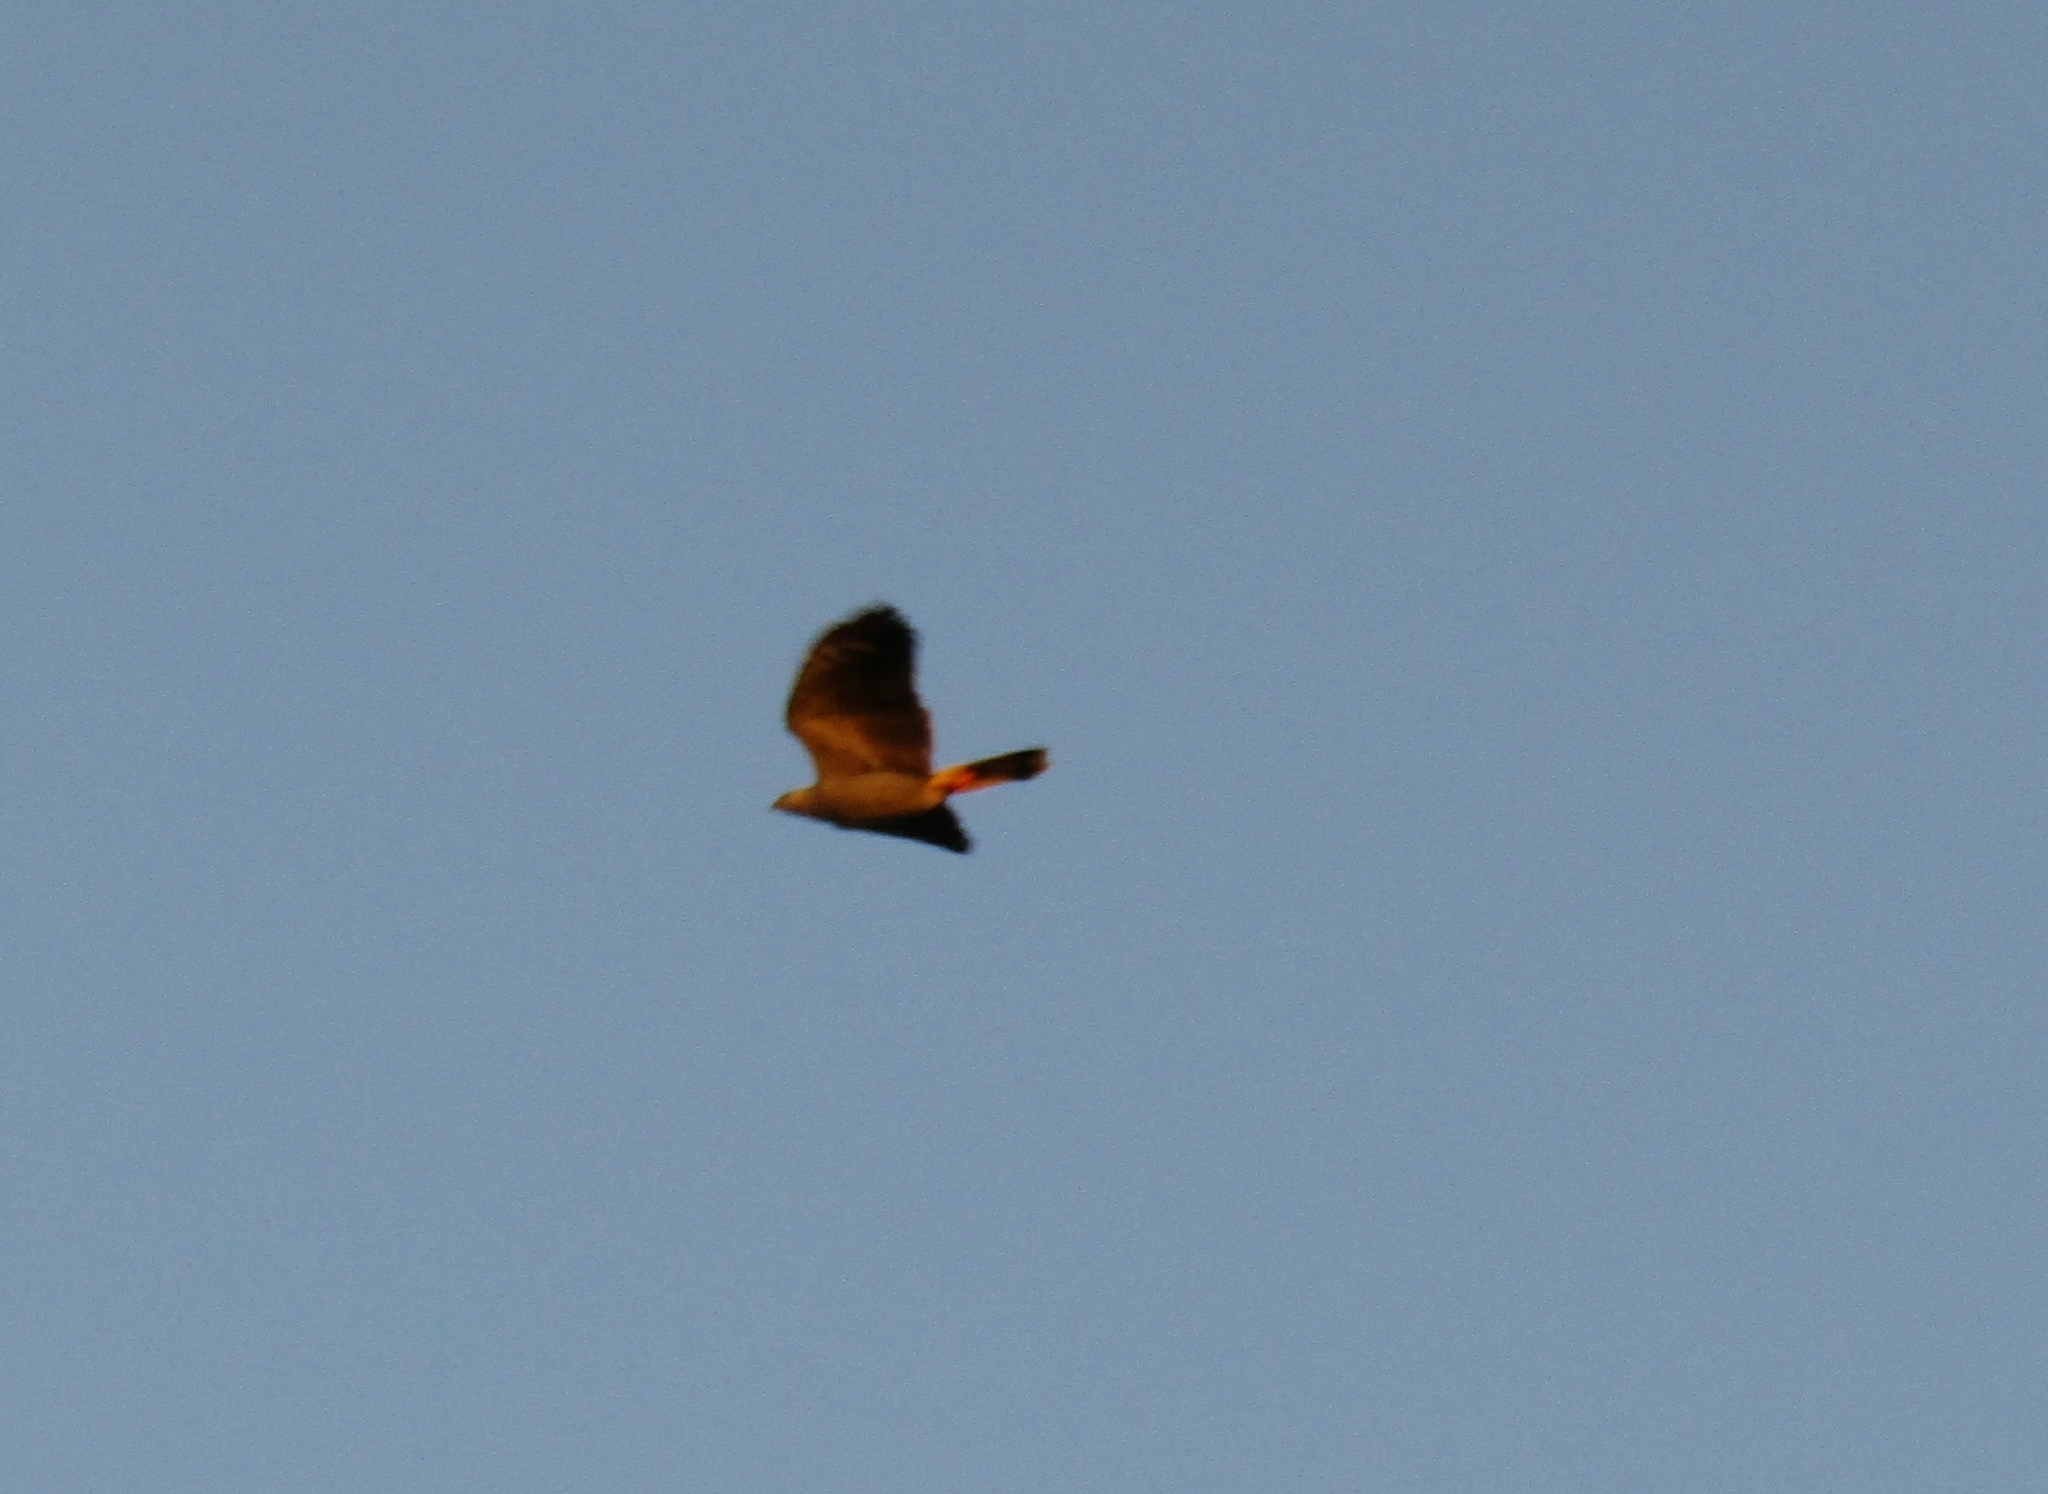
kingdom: Animalia
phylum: Chordata
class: Aves
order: Accipitriformes
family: Accipitridae
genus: Geranospiza
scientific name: Geranospiza caerulescens
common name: Crane hawk
